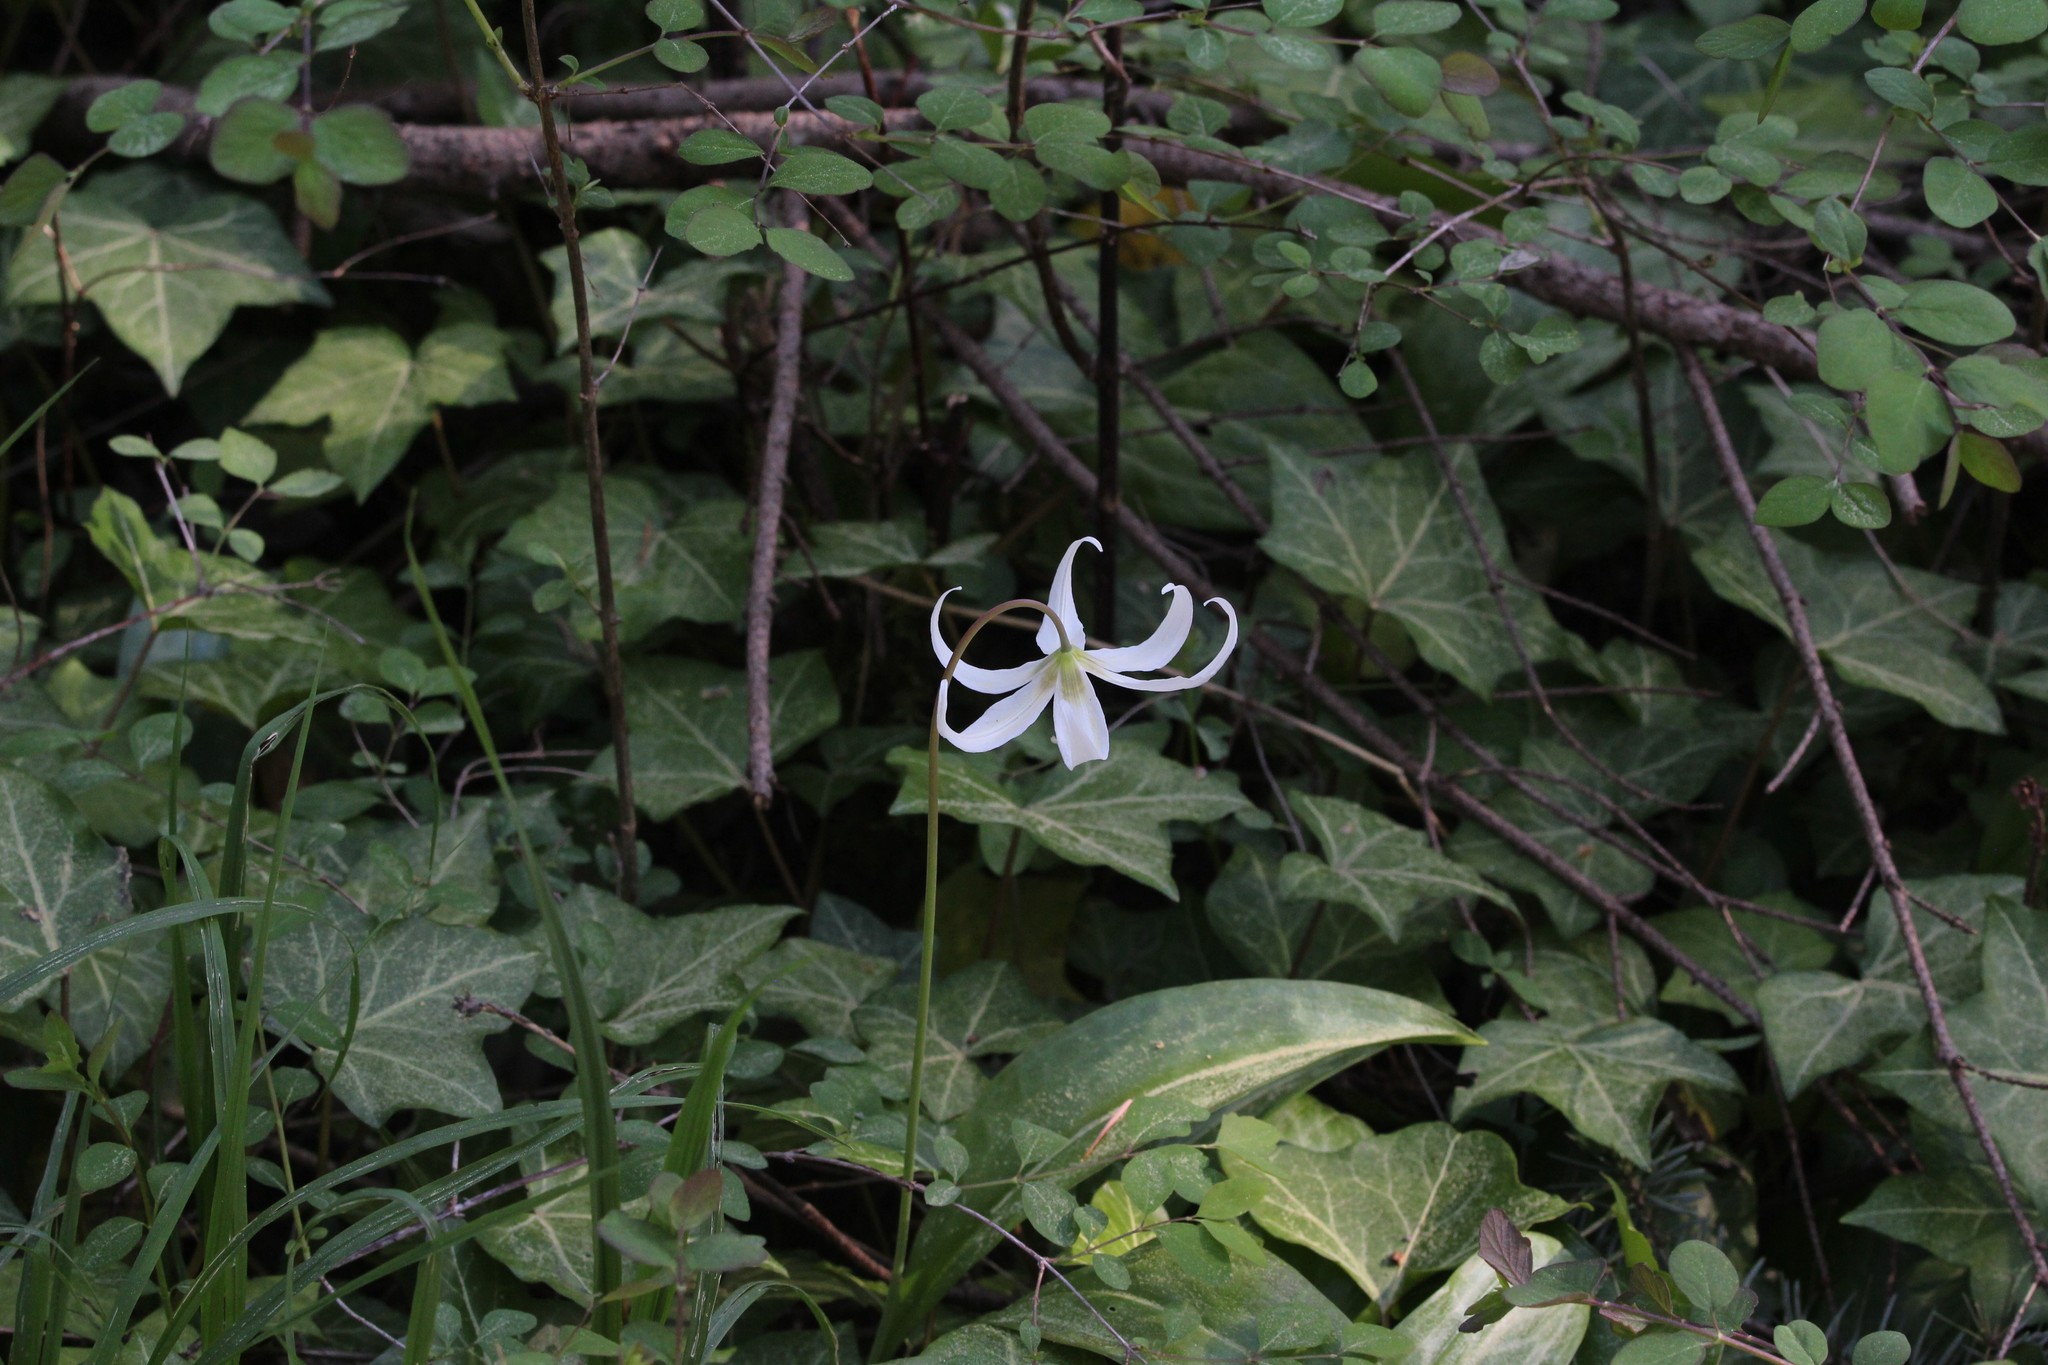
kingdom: Plantae
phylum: Tracheophyta
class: Liliopsida
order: Liliales
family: Liliaceae
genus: Erythronium
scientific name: Erythronium oregonum
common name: Giant adder's-tongue
